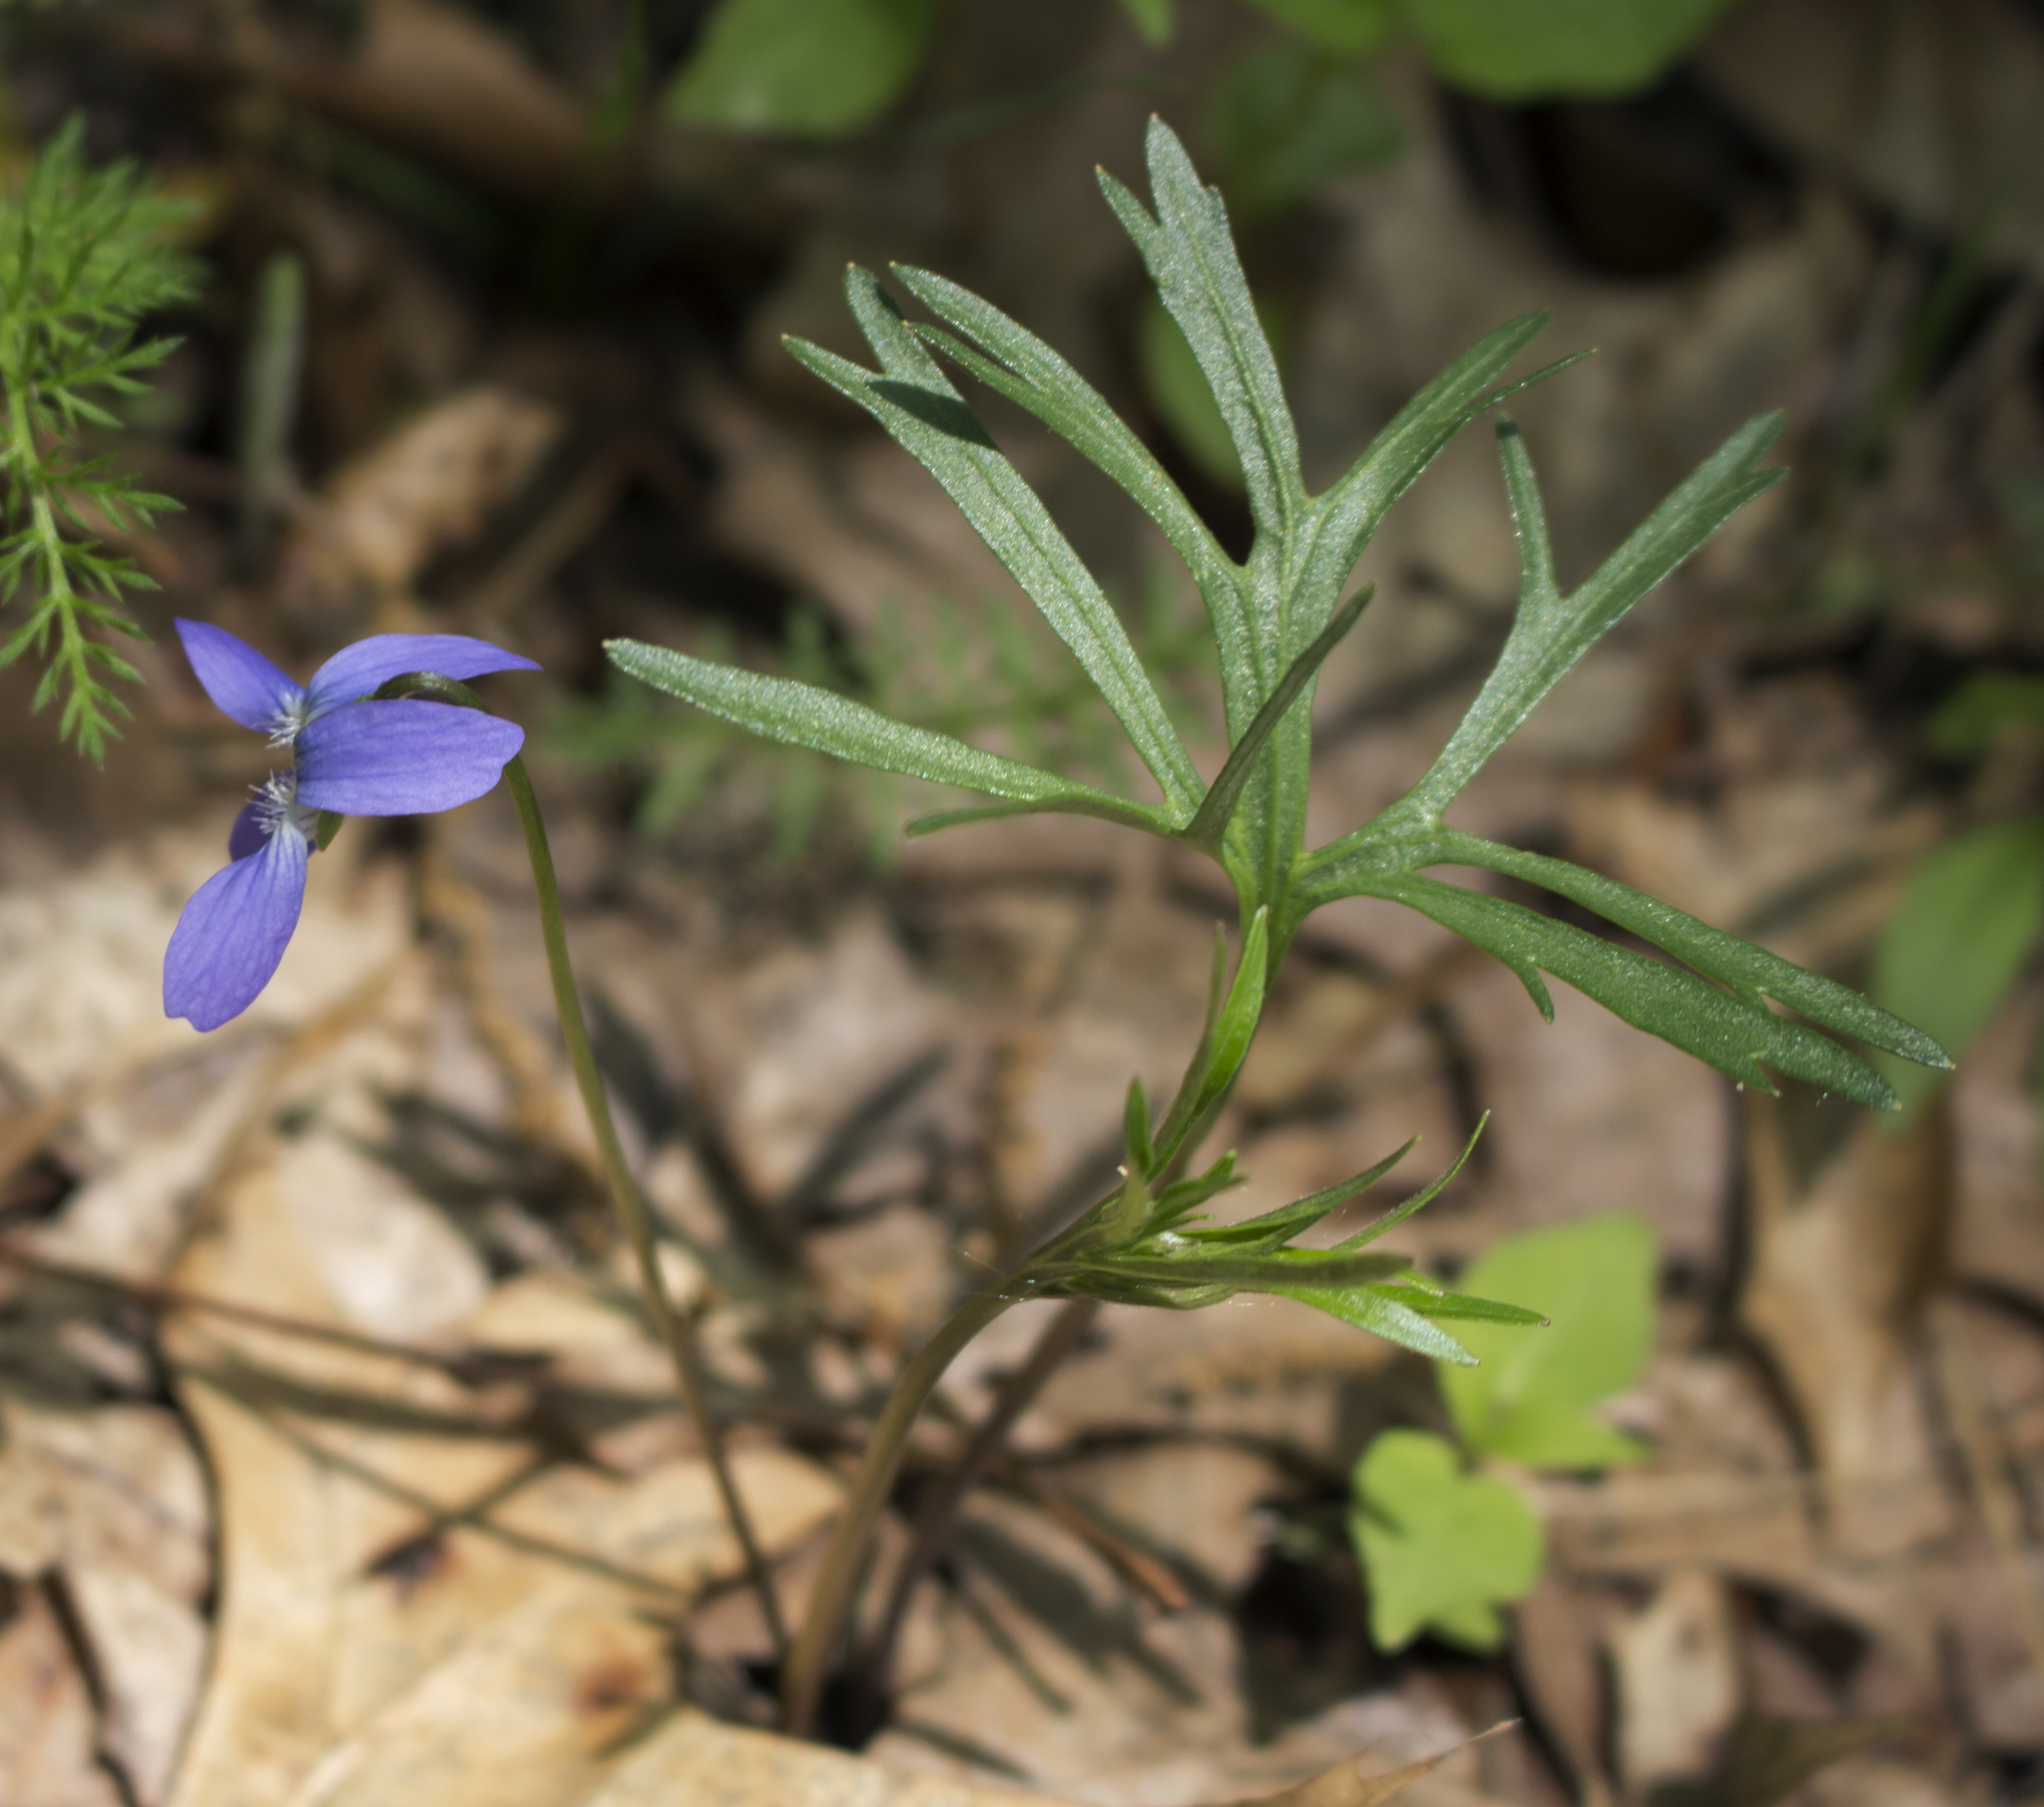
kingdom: Plantae
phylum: Tracheophyta
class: Magnoliopsida
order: Malpighiales
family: Violaceae
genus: Viola
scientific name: Viola pedatifida
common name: Prairie violet
